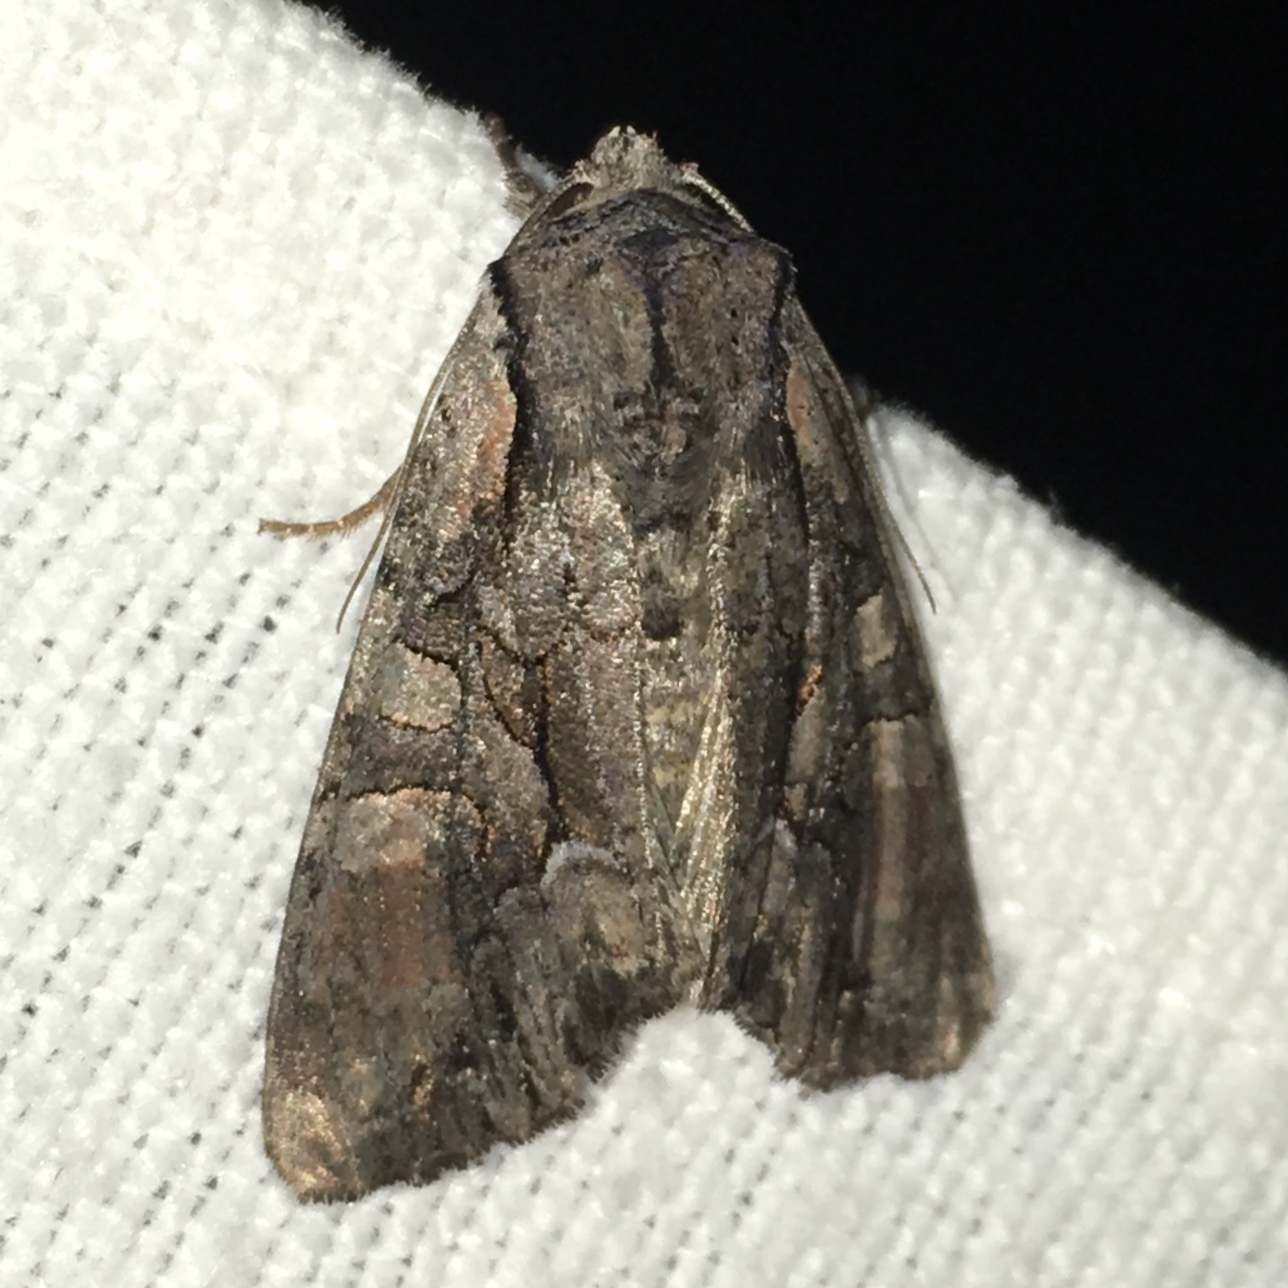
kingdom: Animalia
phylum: Arthropoda
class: Insecta
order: Lepidoptera
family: Noctuidae
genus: Lacanobia
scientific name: Lacanobia subjuncta
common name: Speckled cutworm moth
